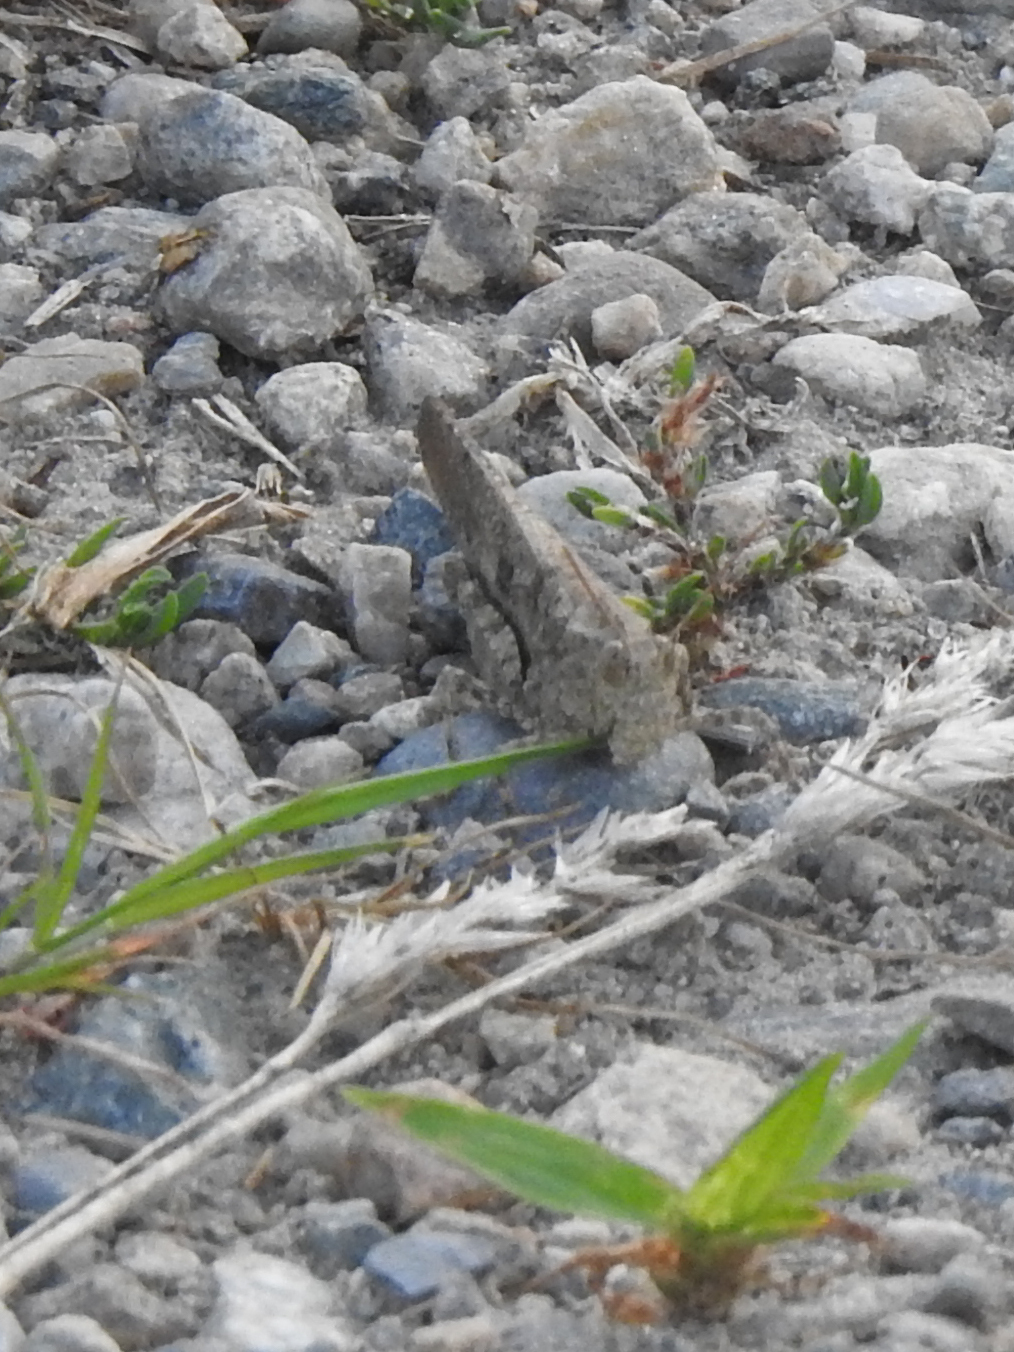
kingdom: Animalia
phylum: Arthropoda
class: Insecta
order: Orthoptera
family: Acrididae
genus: Dissosteira
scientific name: Dissosteira carolina
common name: Carolina grasshopper
